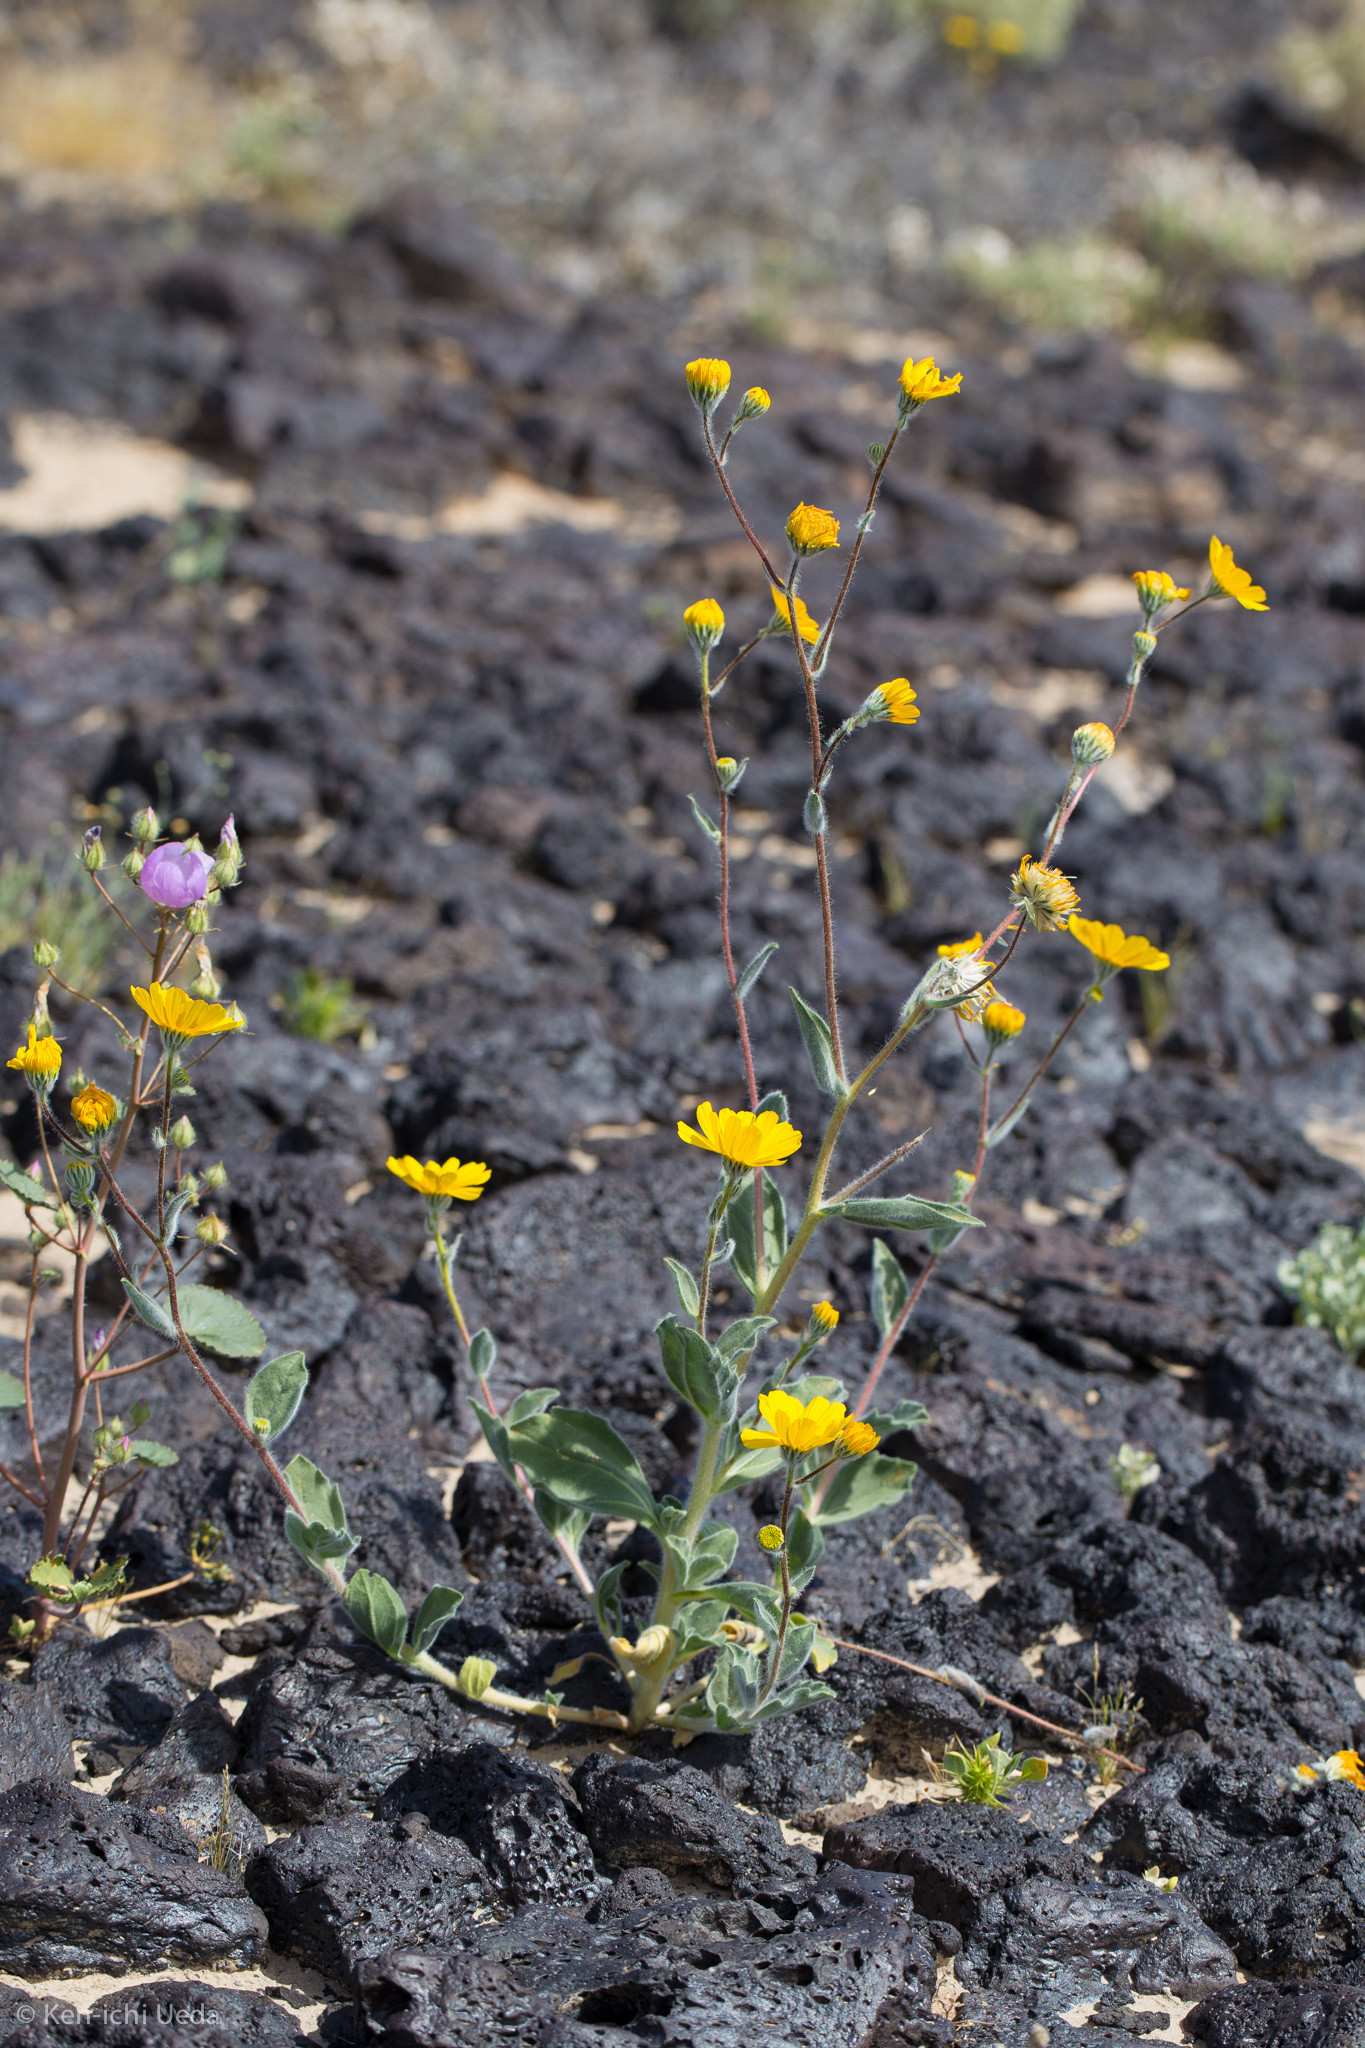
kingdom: Plantae
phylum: Tracheophyta
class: Magnoliopsida
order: Asterales
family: Asteraceae
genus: Geraea
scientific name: Geraea canescens
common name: Desert-gold
